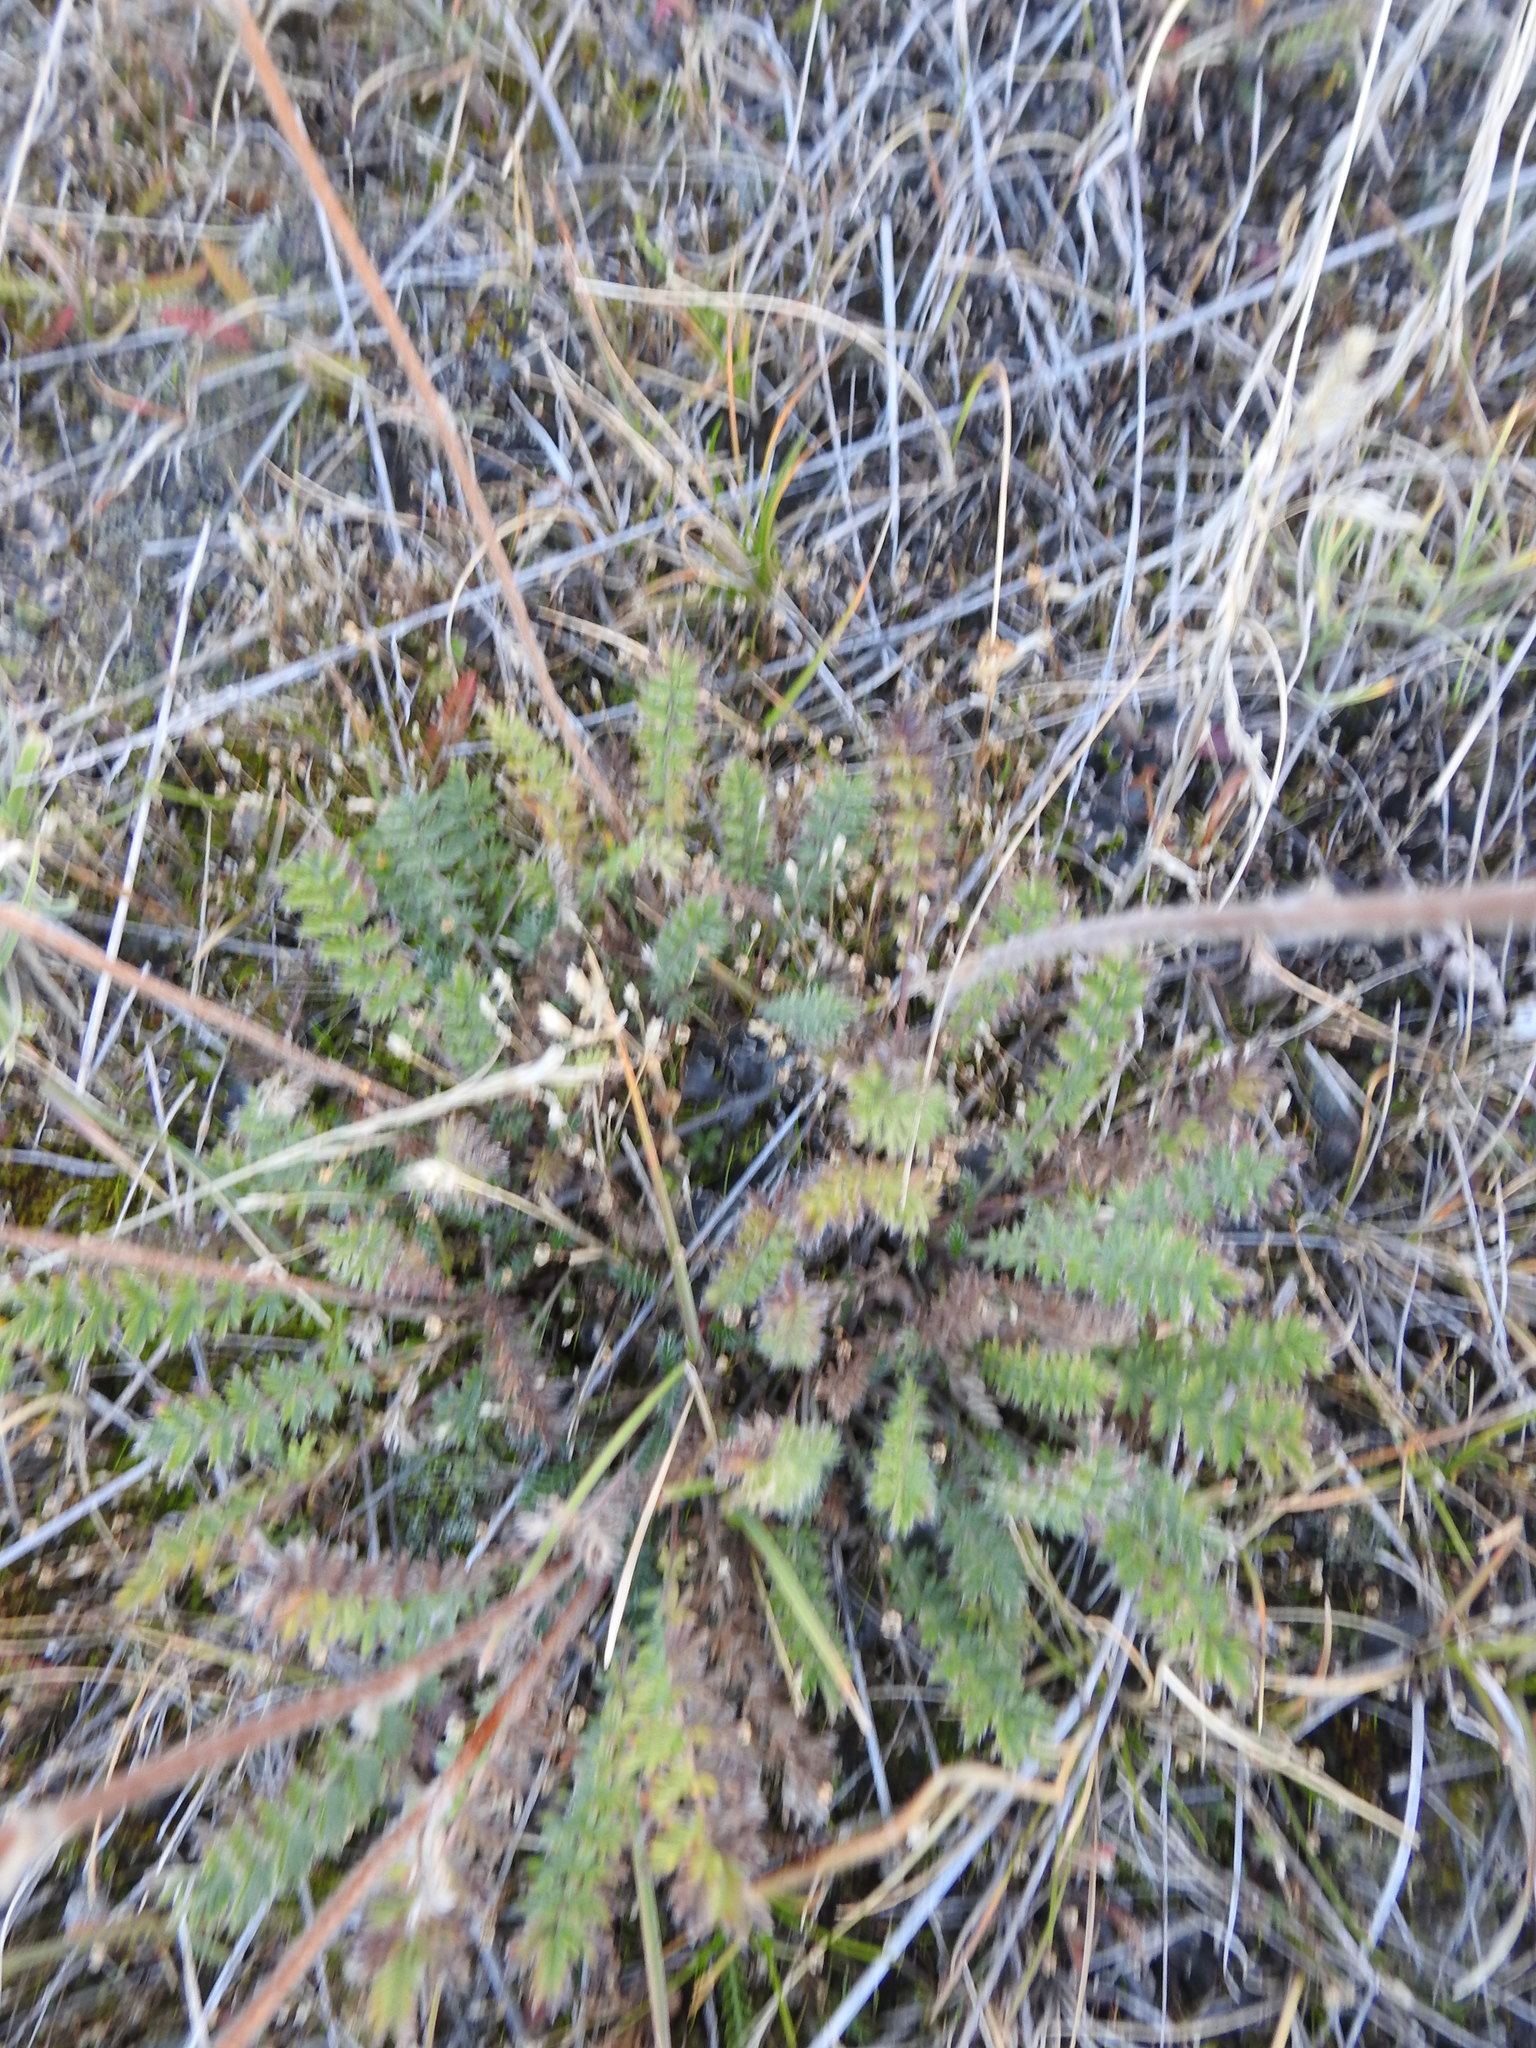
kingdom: Plantae
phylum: Tracheophyta
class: Magnoliopsida
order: Rosales
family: Rosaceae
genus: Acaena
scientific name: Acaena pinnatifida
